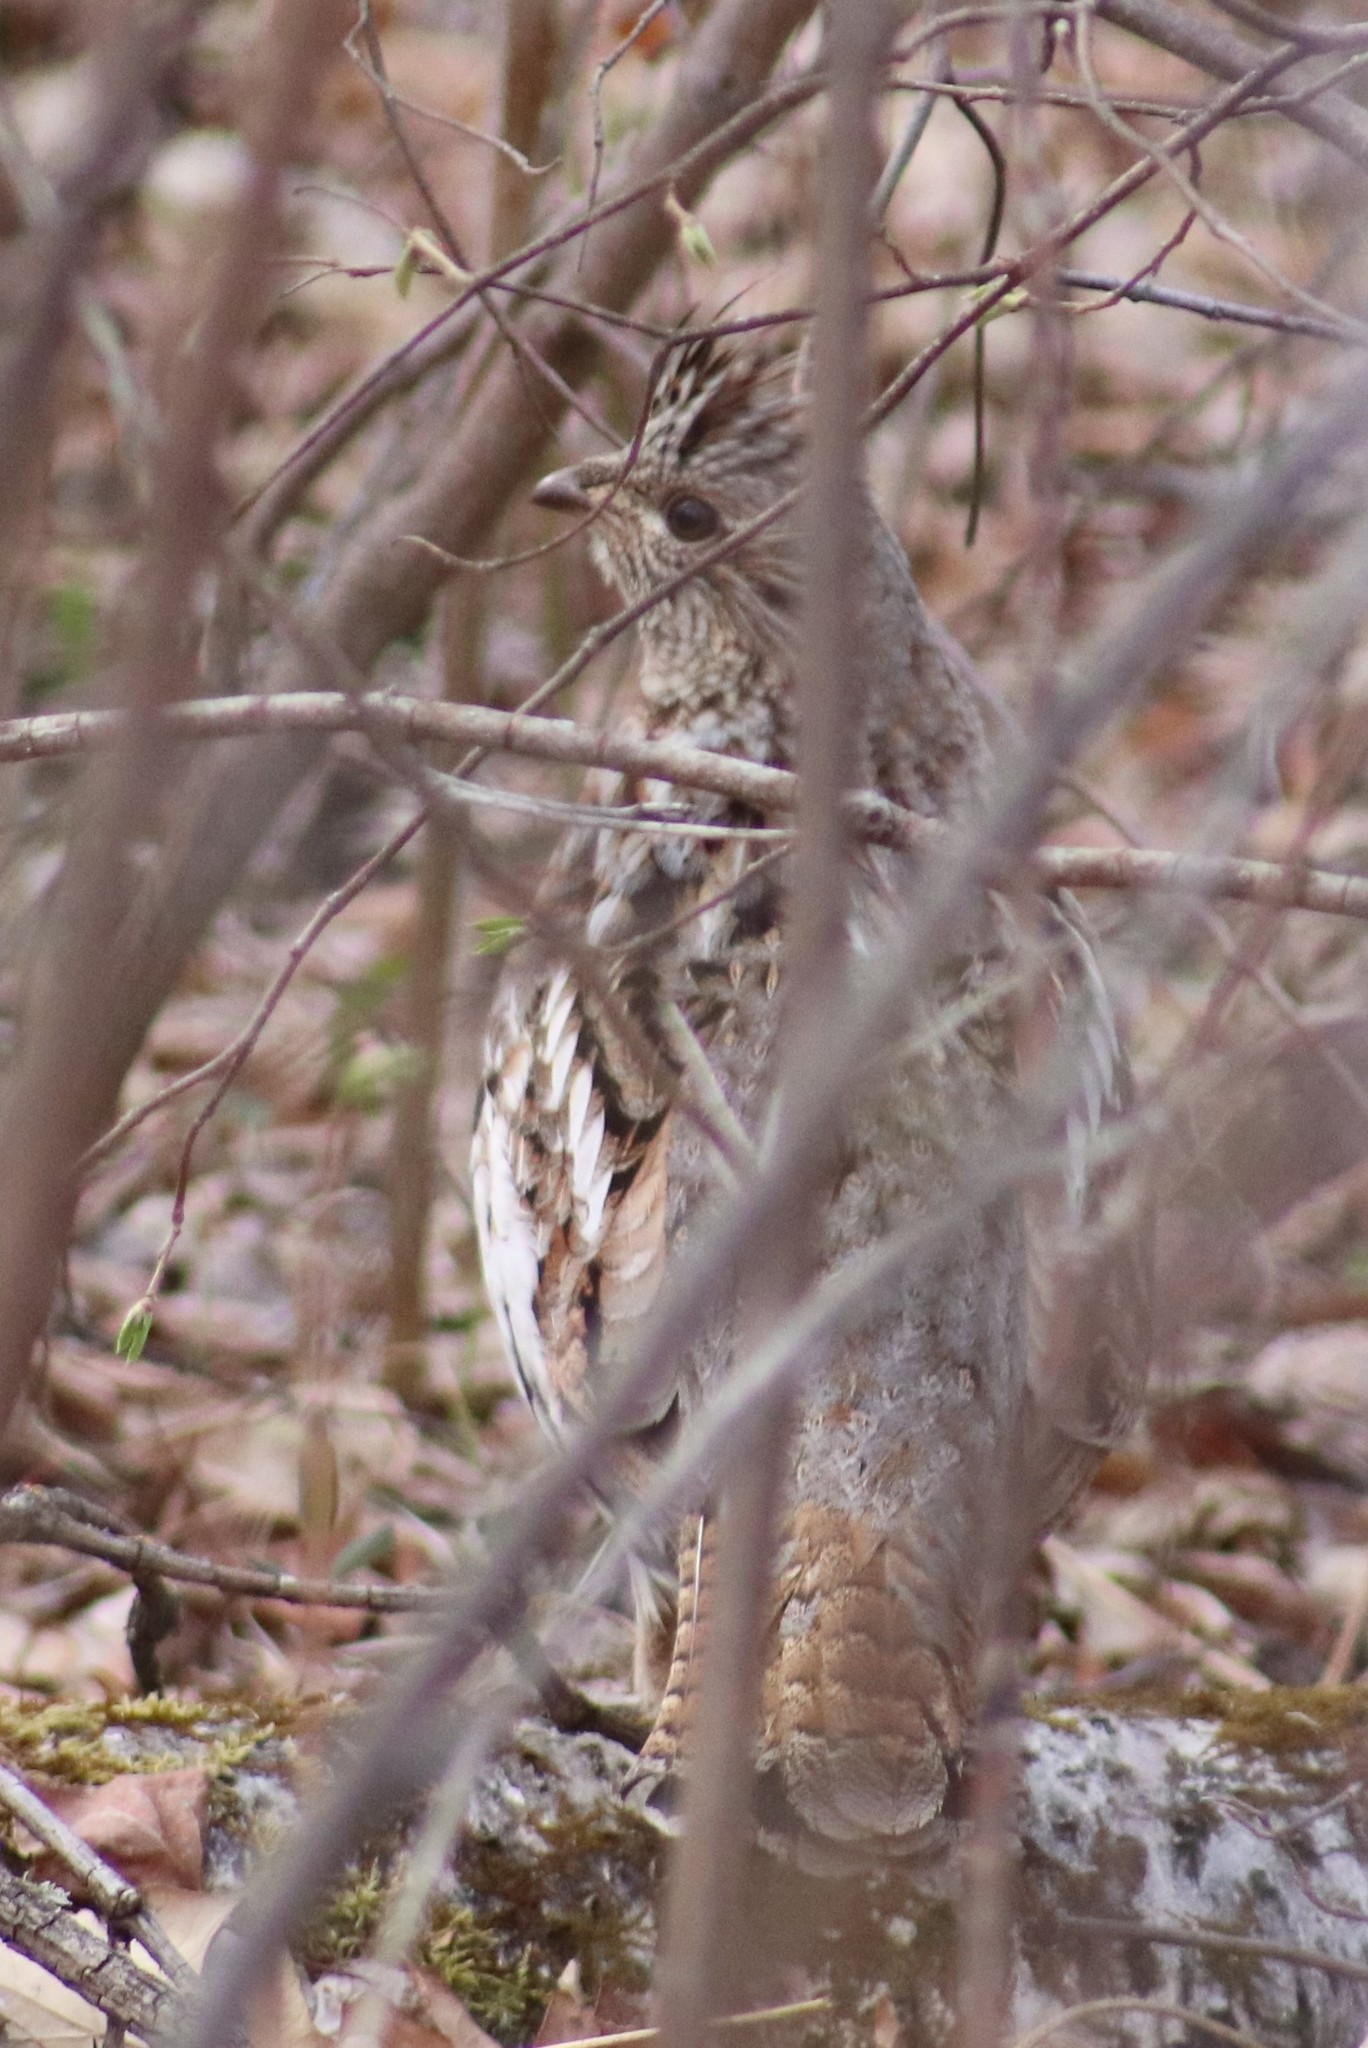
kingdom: Animalia
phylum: Chordata
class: Aves
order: Galliformes
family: Phasianidae
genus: Bonasa
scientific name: Bonasa umbellus
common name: Ruffed grouse
